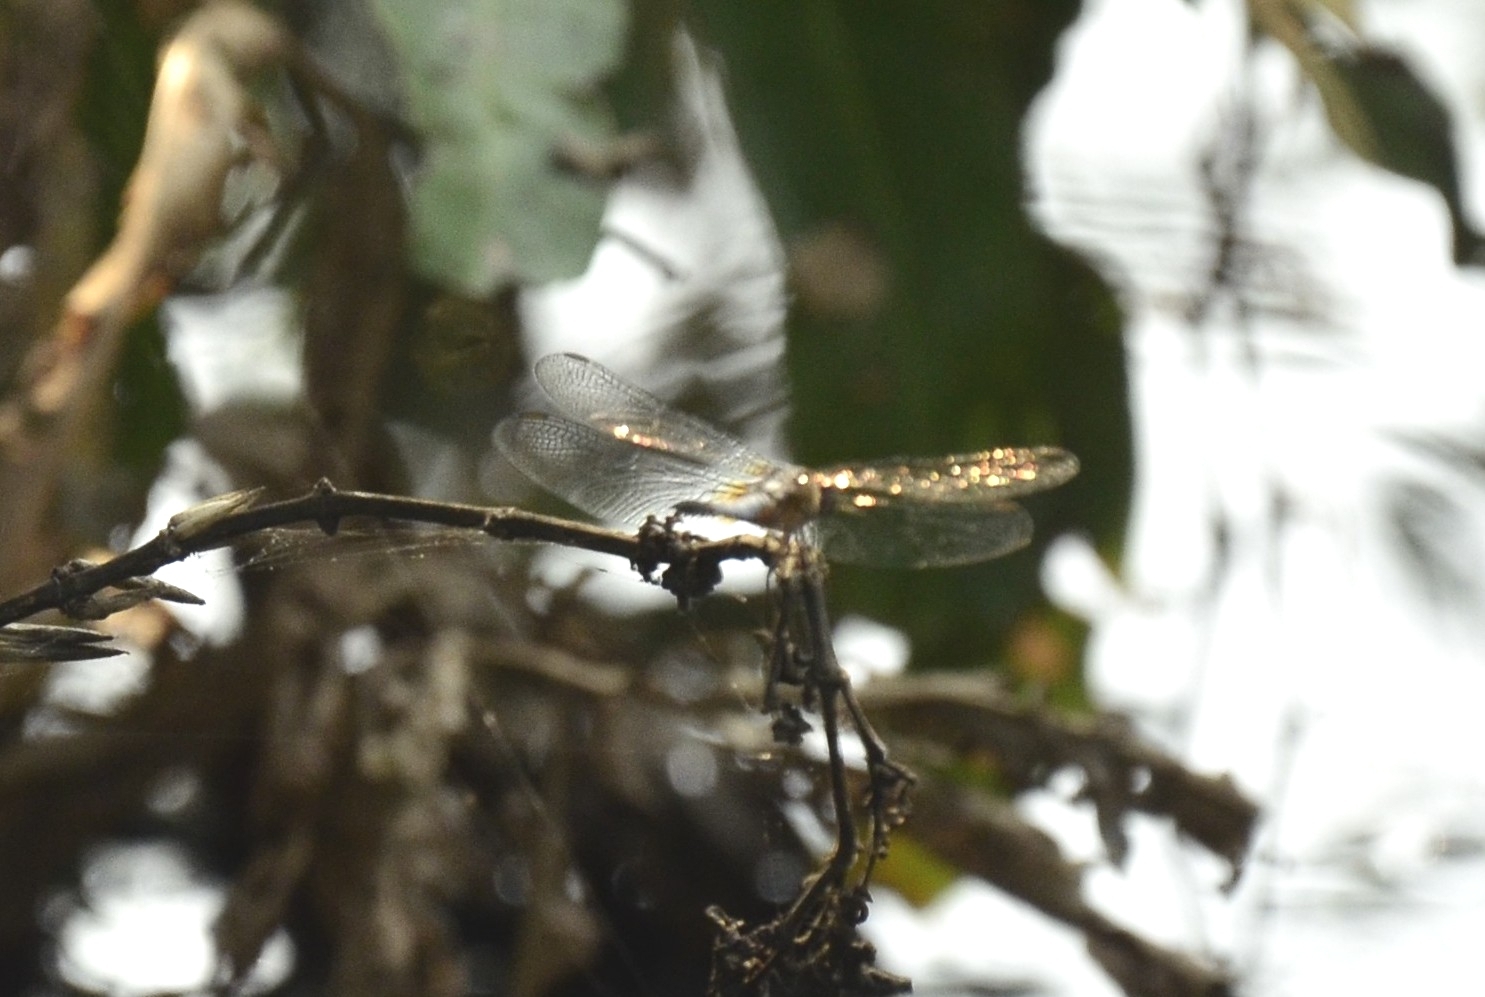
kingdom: Animalia
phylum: Arthropoda
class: Insecta
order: Odonata
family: Libellulidae
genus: Brachydiplax
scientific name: Brachydiplax chalybea
